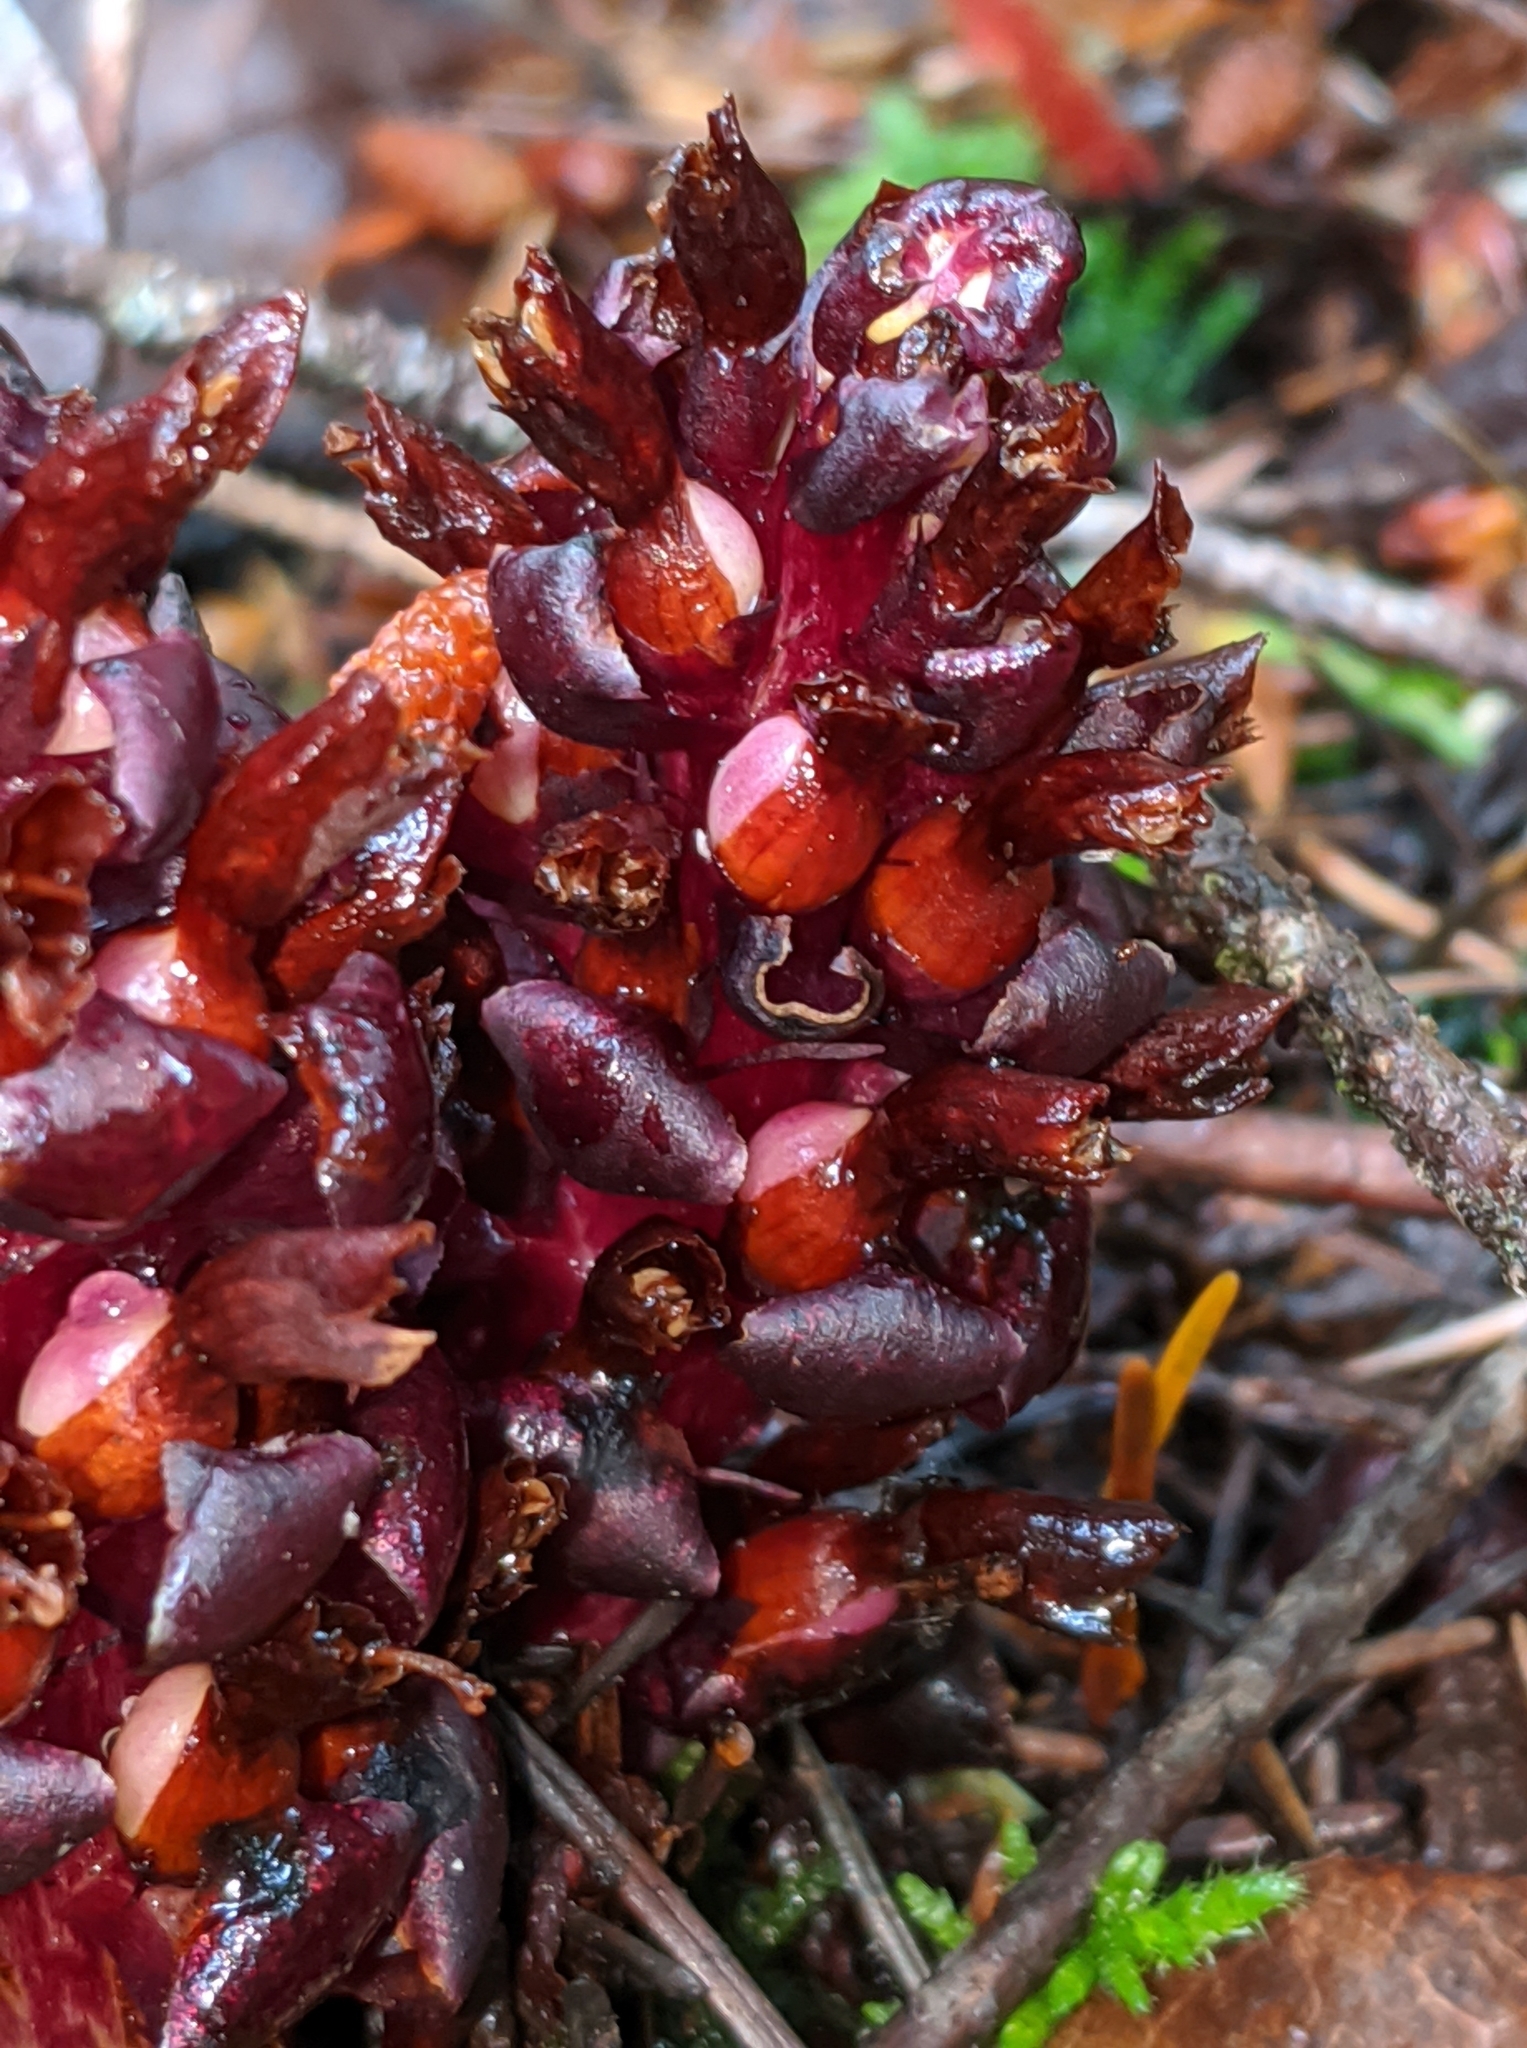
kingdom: Plantae
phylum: Tracheophyta
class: Magnoliopsida
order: Lamiales
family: Orobanchaceae
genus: Kopsiopsis
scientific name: Kopsiopsis hookeri
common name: Hooker's groundcone
